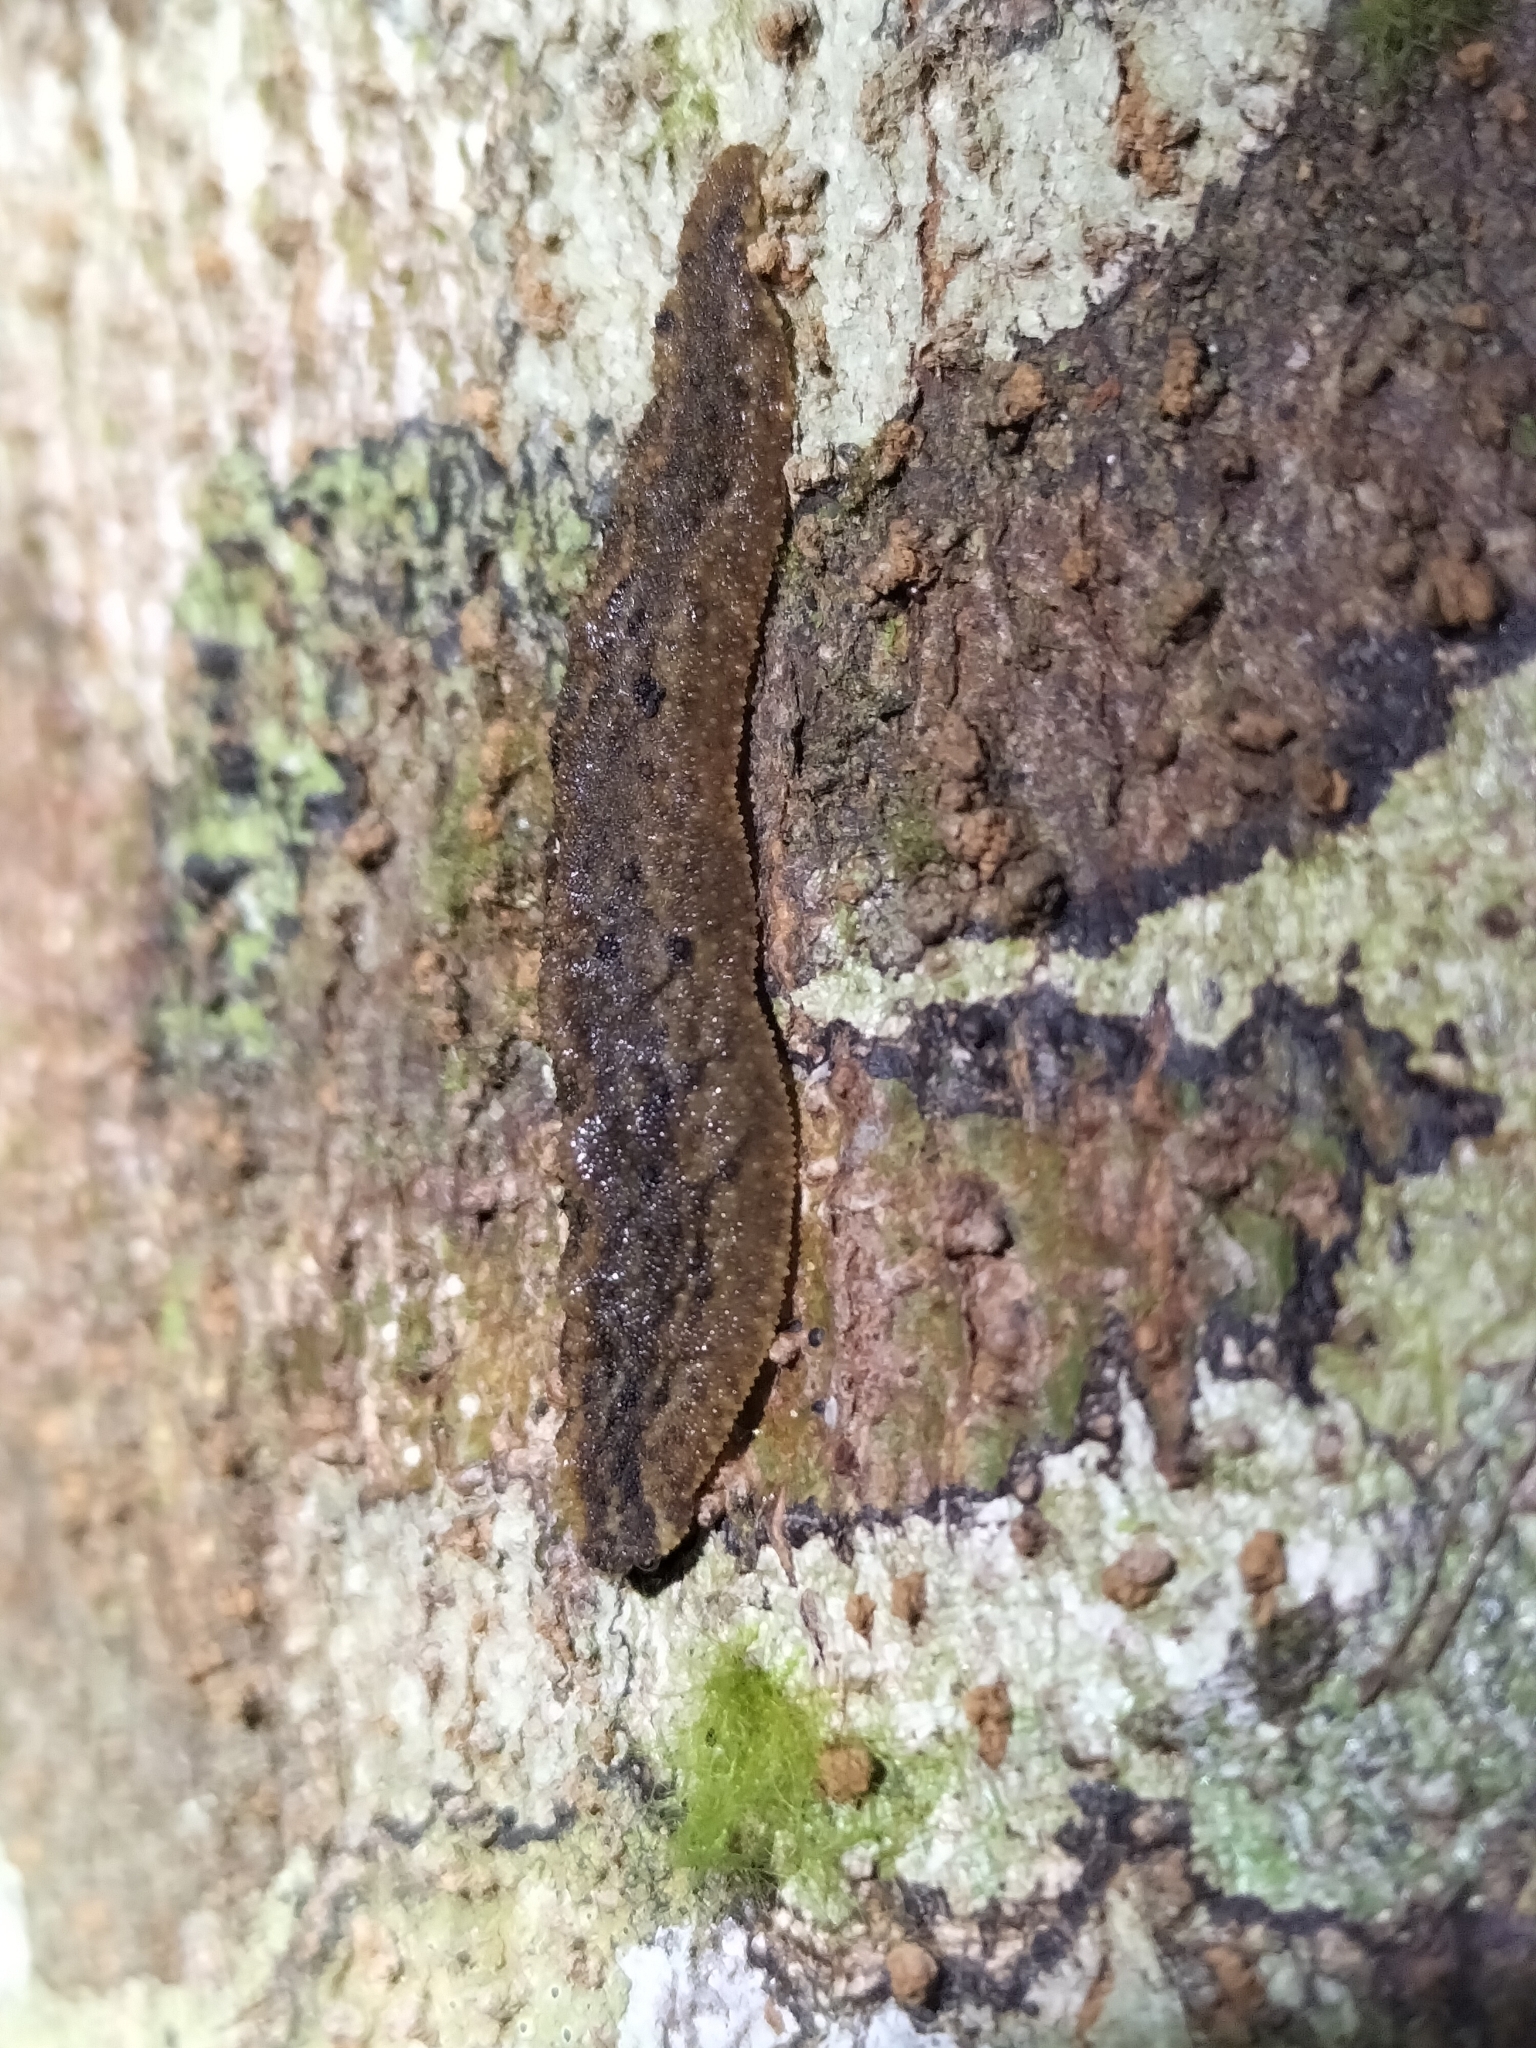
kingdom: Animalia
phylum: Mollusca
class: Gastropoda
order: Systellommatophora
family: Rathouisiidae
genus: Atopos
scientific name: Atopos australis
